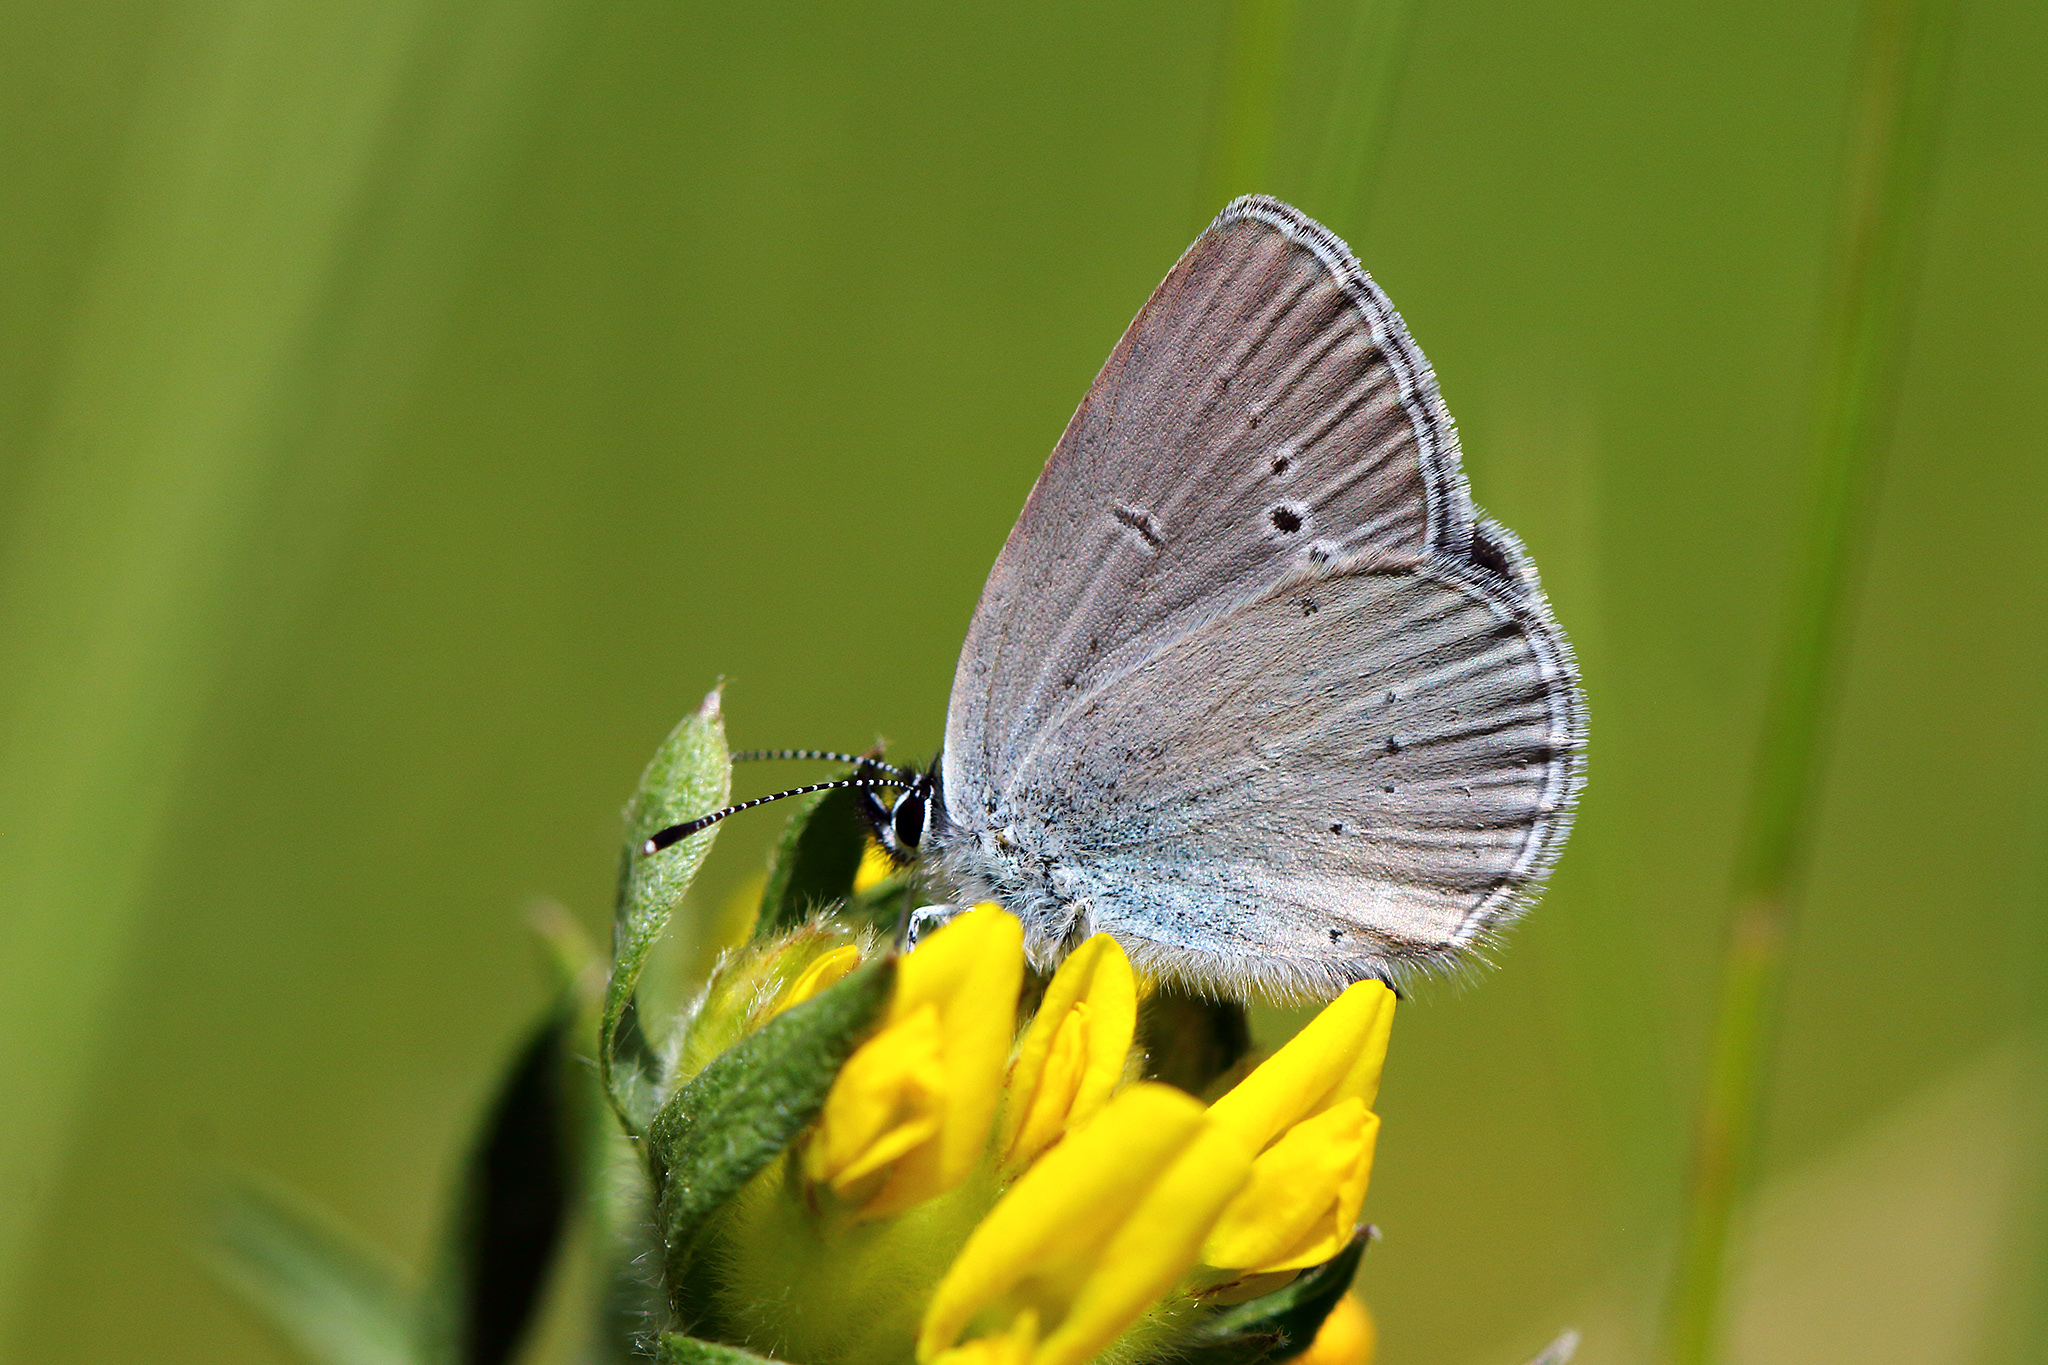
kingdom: Animalia
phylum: Arthropoda
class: Insecta
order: Lepidoptera
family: Lycaenidae
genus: Cupido
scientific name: Cupido minimus
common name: Small blue
